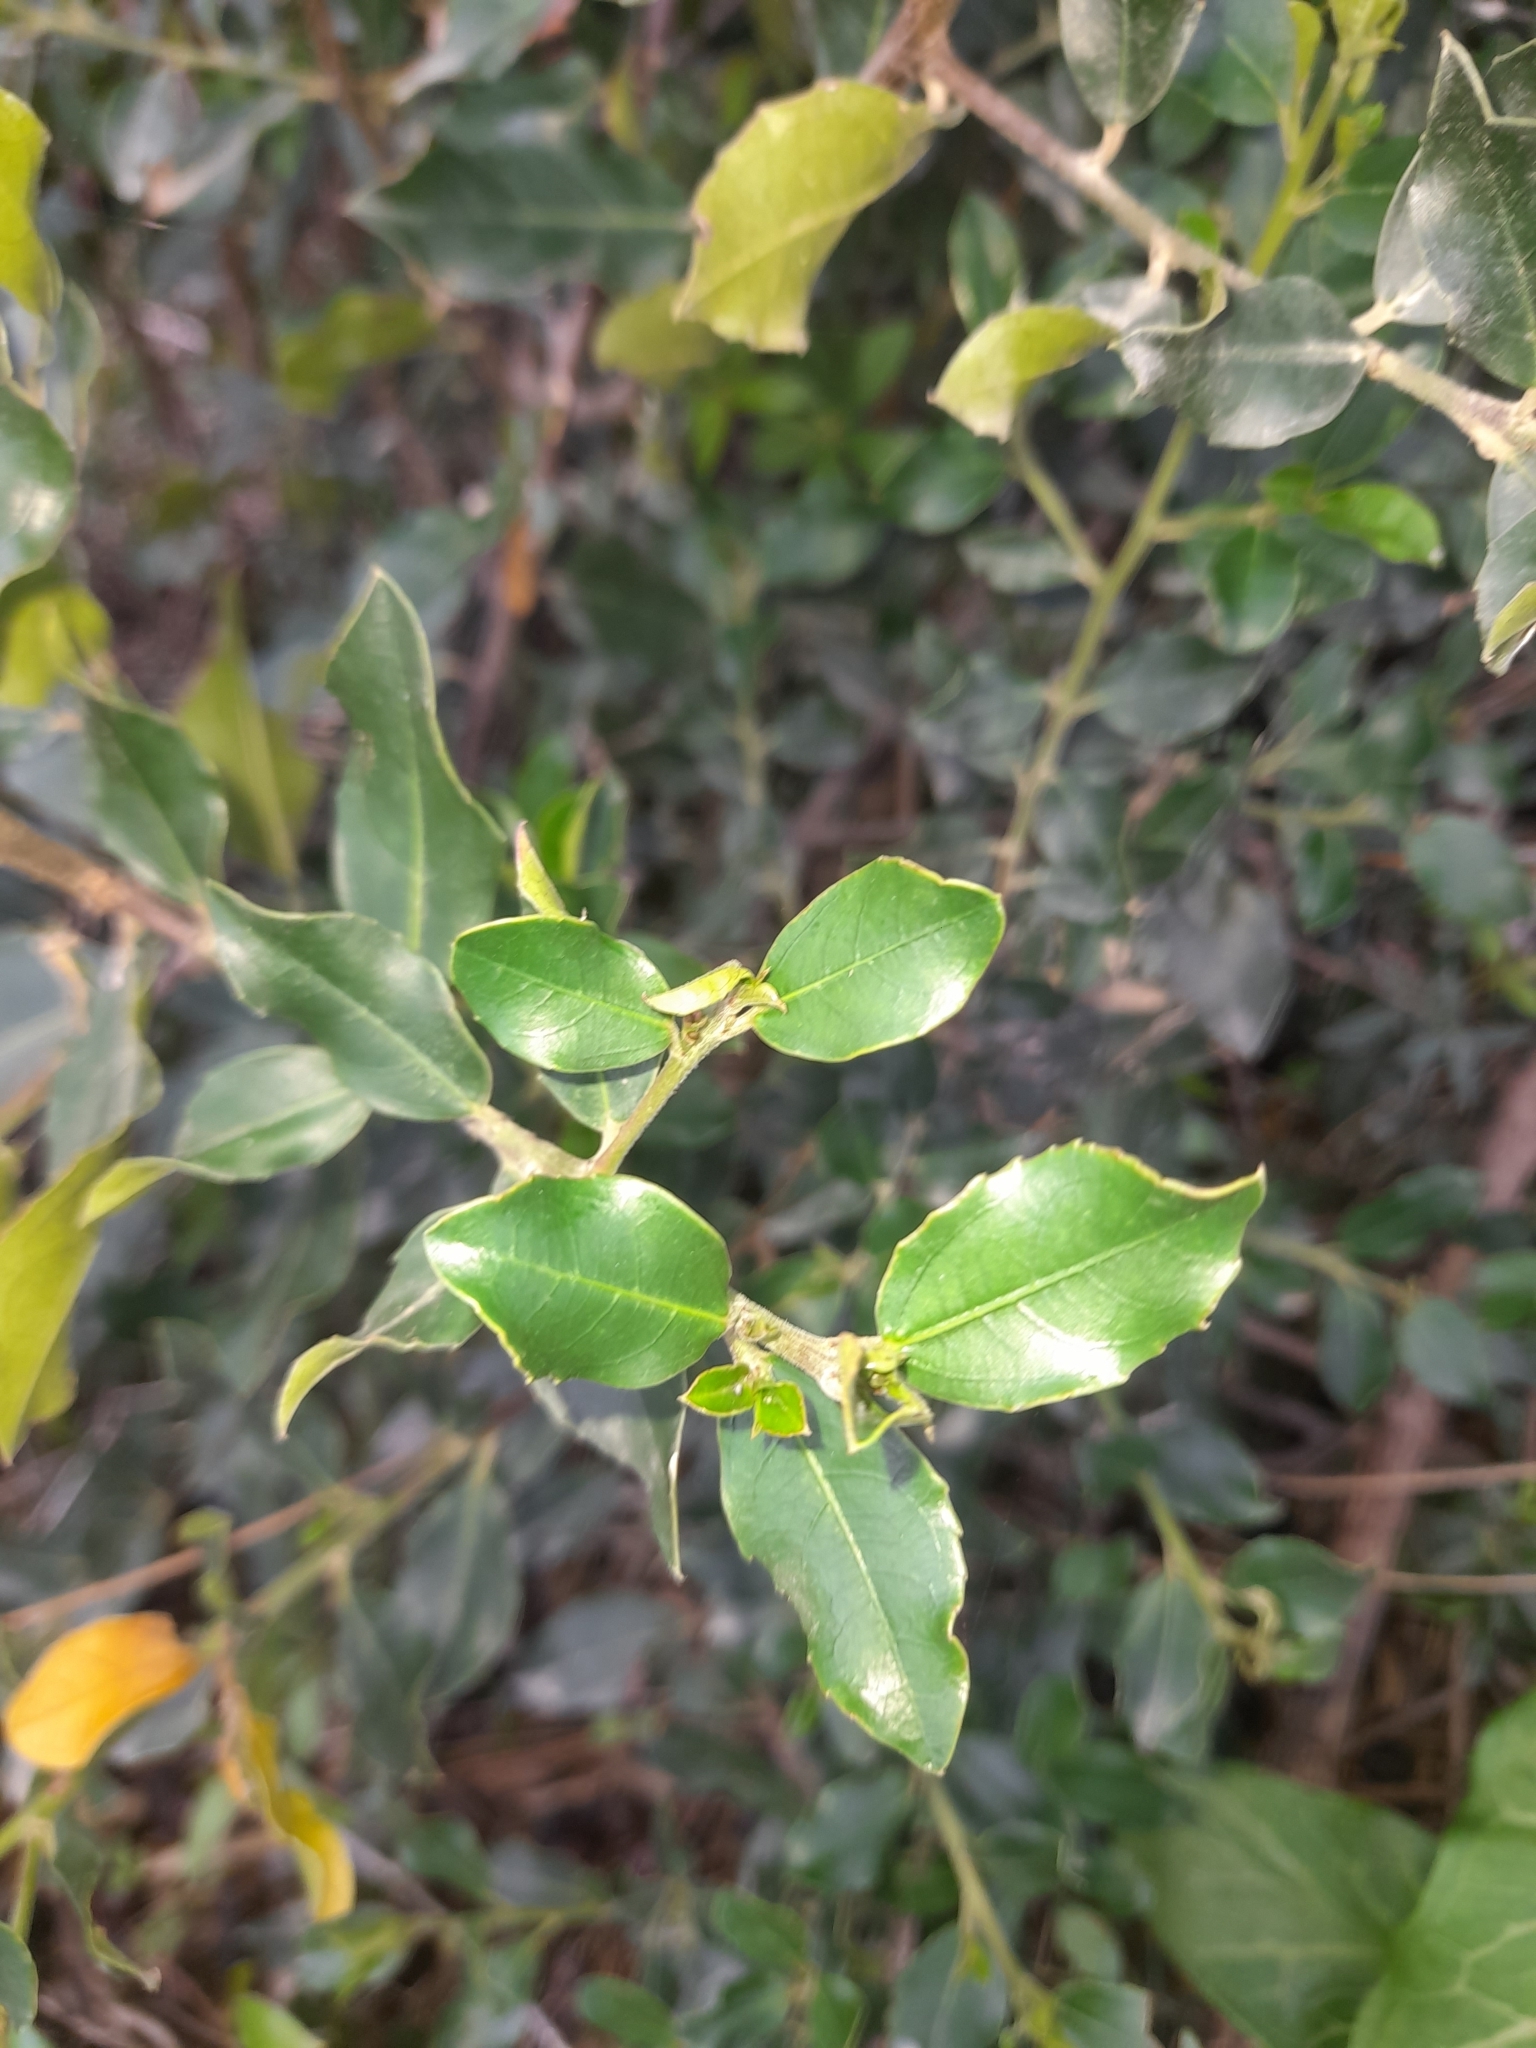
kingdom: Plantae
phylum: Tracheophyta
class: Magnoliopsida
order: Rosales
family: Rhamnaceae
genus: Rhamnus
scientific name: Rhamnus alaternus
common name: Mediterranean buckthorn
